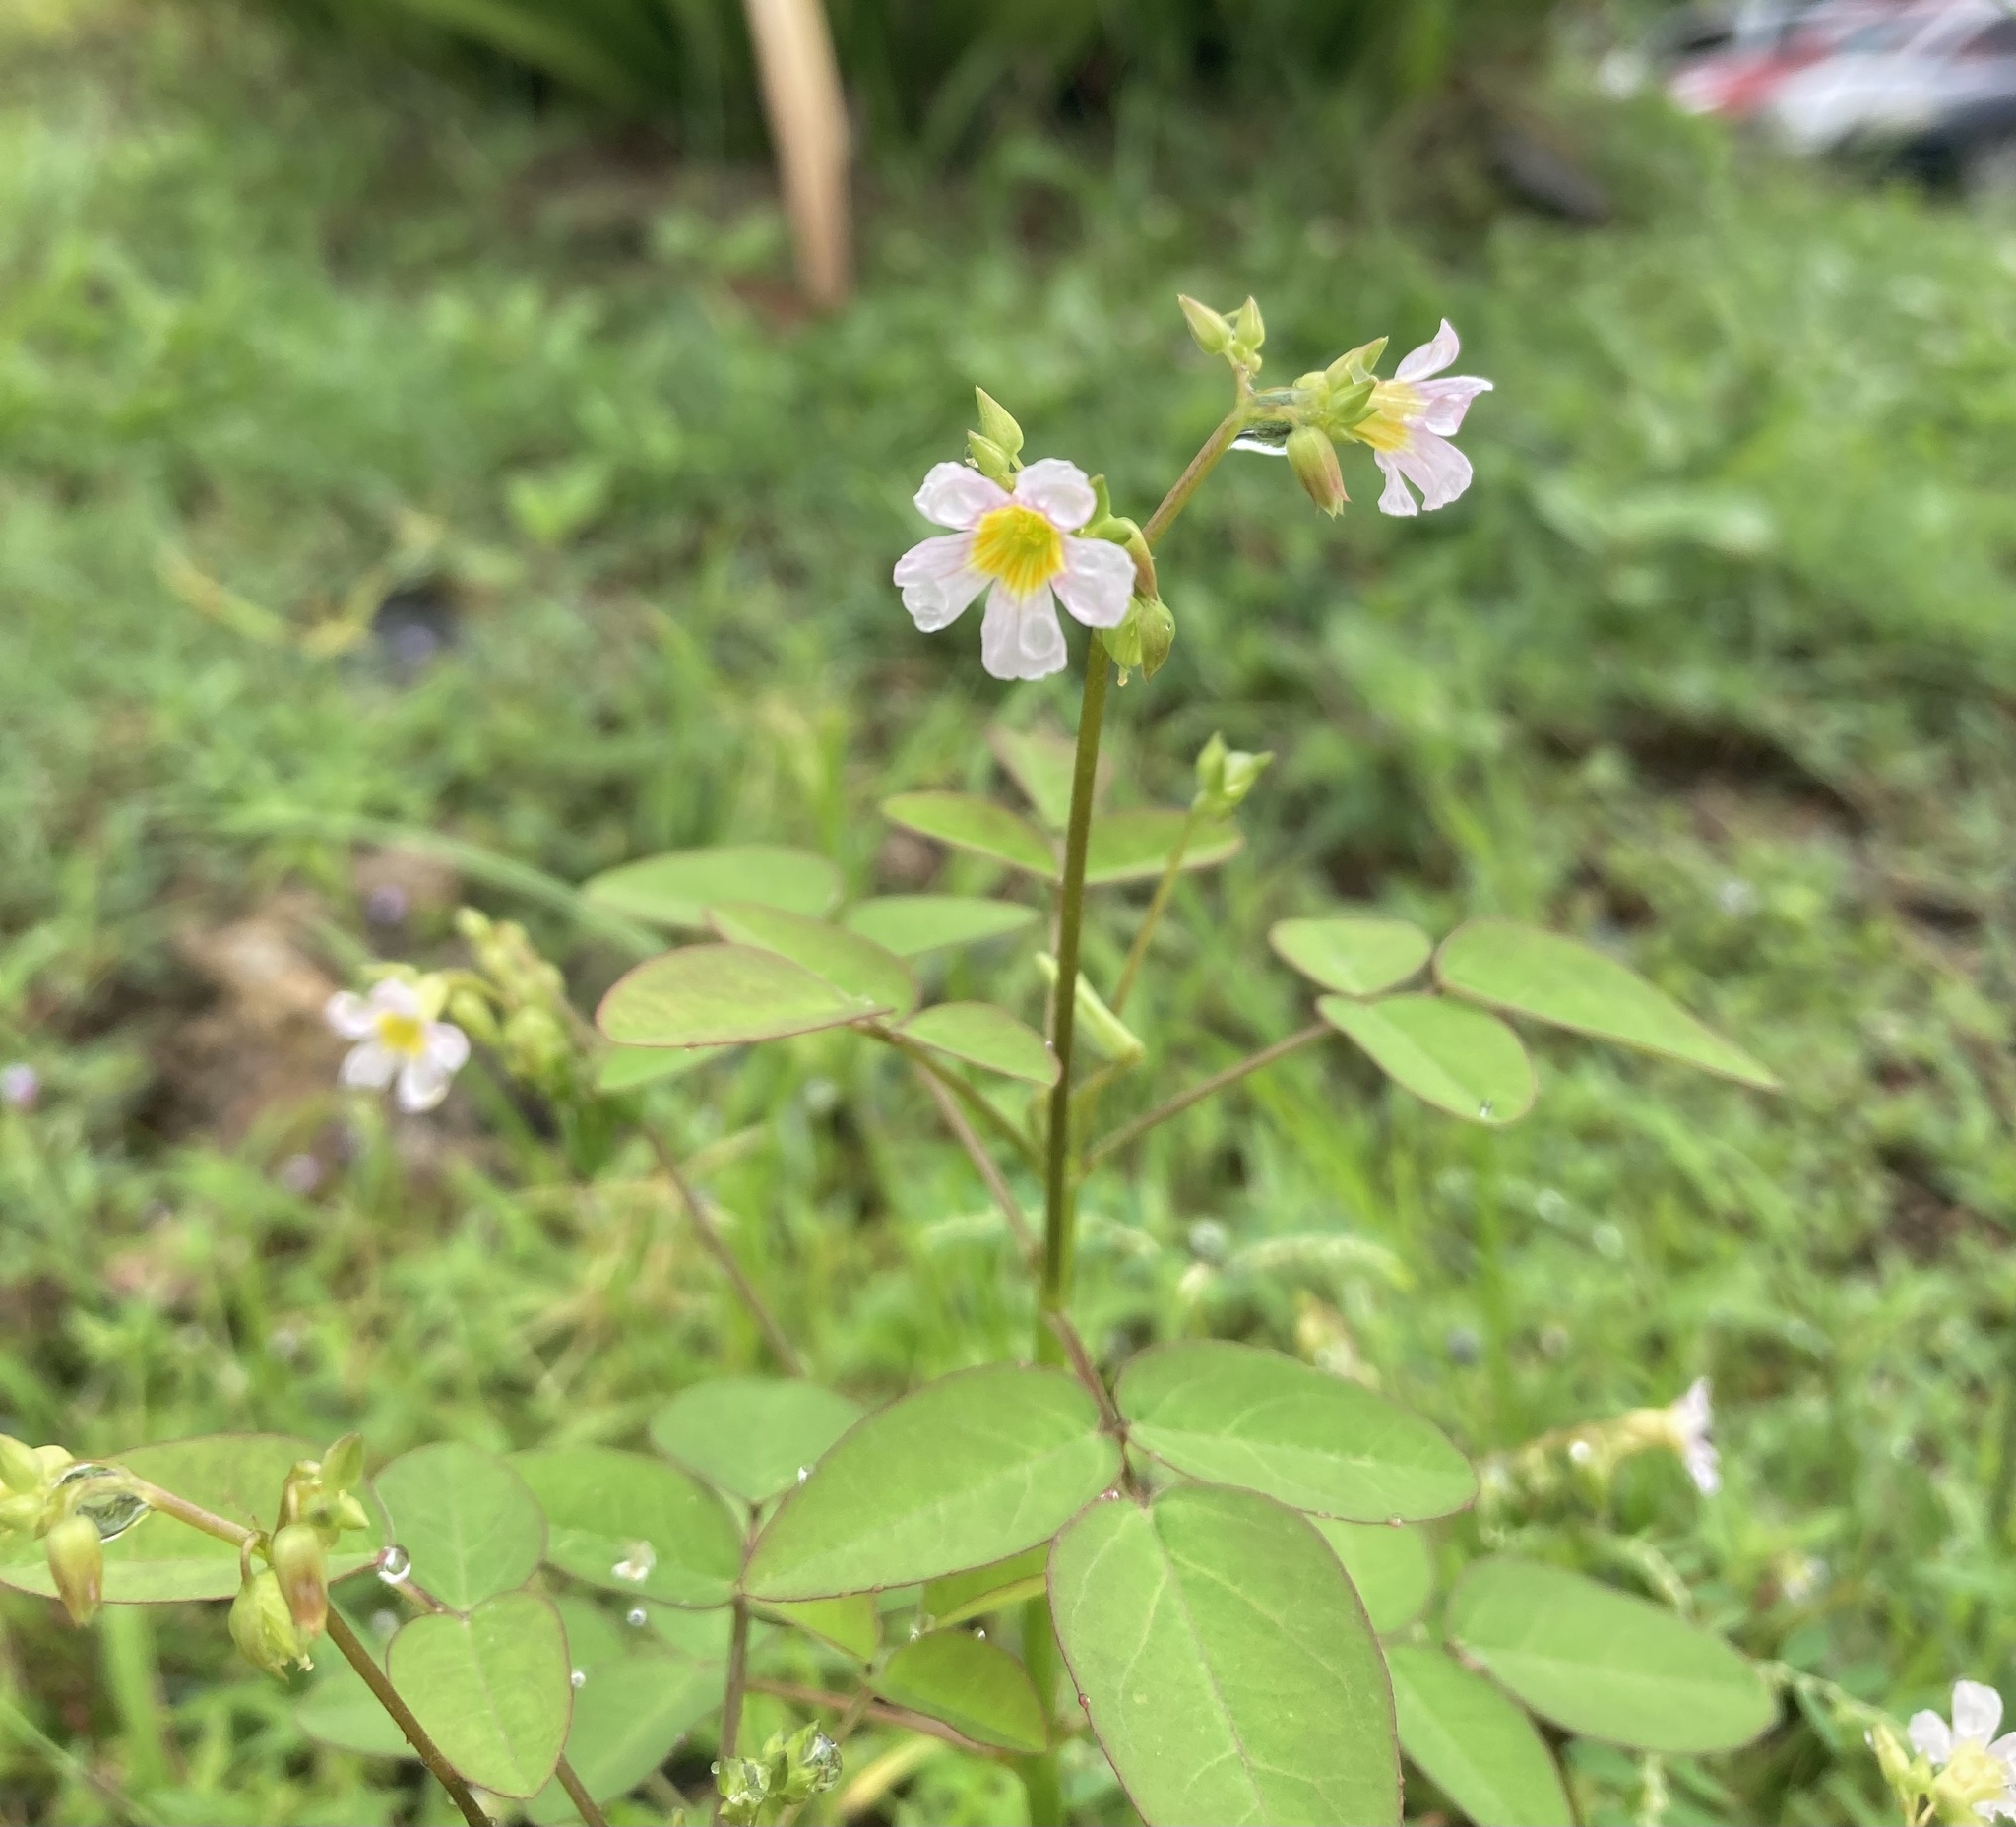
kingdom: Plantae
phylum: Tracheophyta
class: Magnoliopsida
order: Oxalidales
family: Oxalidaceae
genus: Oxalis
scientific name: Oxalis barrelieri
